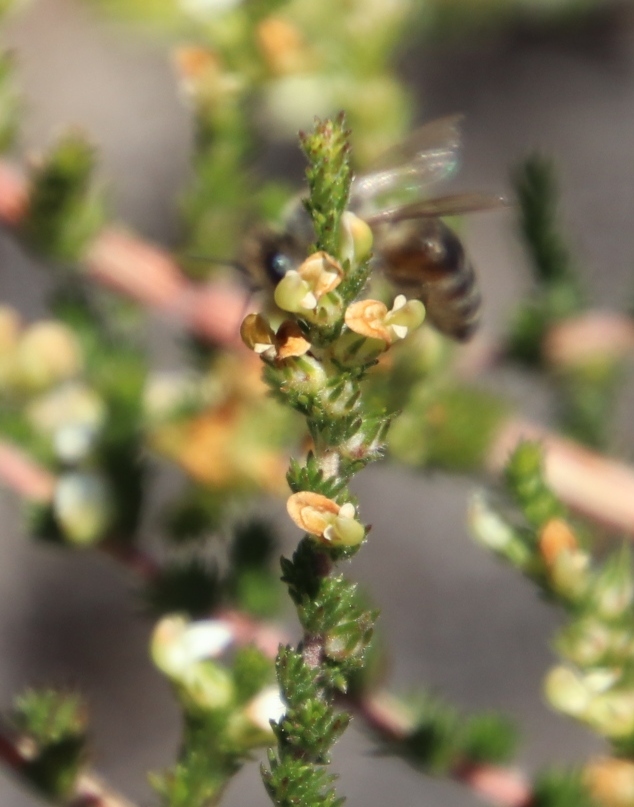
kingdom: Plantae
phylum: Tracheophyta
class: Magnoliopsida
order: Fabales
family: Fabaceae
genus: Aspalathus
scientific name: Aspalathus hispida
